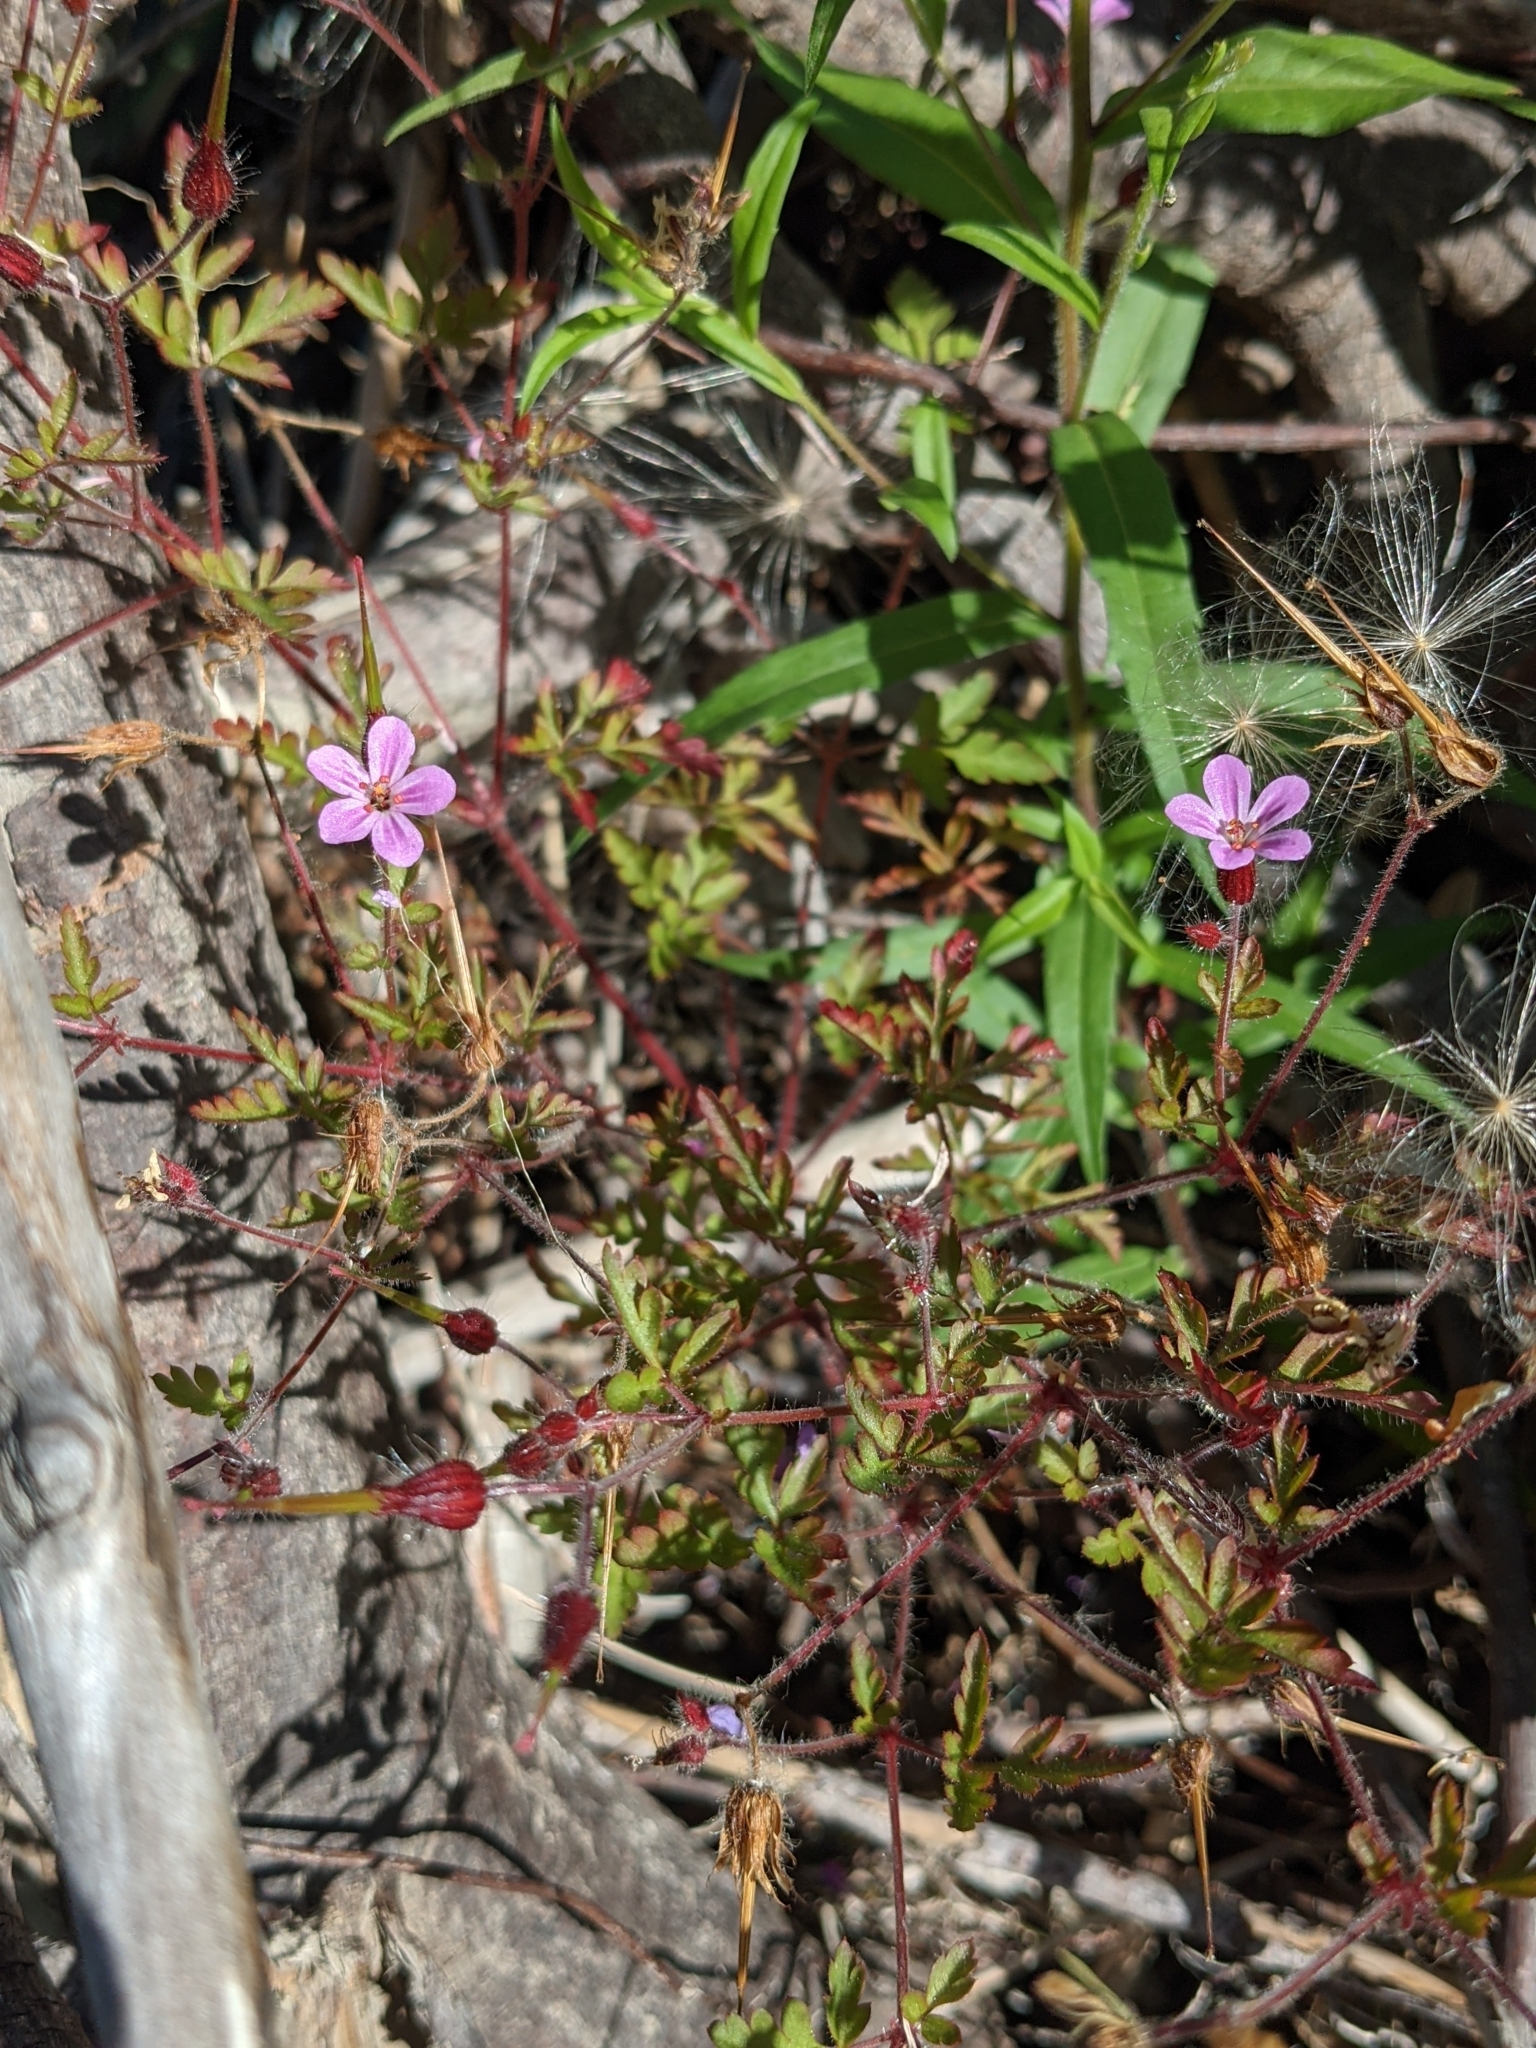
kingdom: Plantae
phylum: Tracheophyta
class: Magnoliopsida
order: Geraniales
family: Geraniaceae
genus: Geranium
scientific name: Geranium robertianum
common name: Herb-robert
